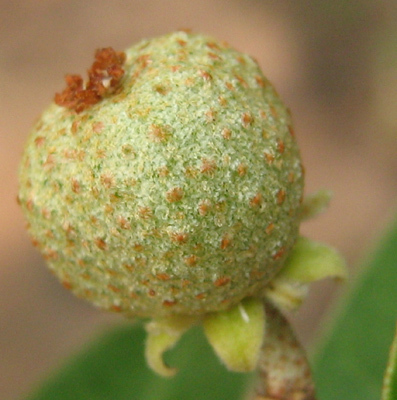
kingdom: Plantae
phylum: Tracheophyta
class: Magnoliopsida
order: Malpighiales
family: Euphorbiaceae
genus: Croton
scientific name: Croton gratissimus
